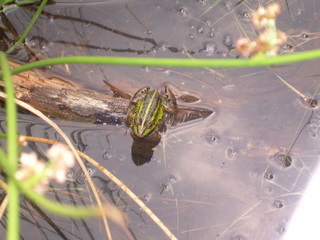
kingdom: Animalia
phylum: Chordata
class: Amphibia
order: Anura
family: Ranidae
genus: Pelophylax
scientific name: Pelophylax
